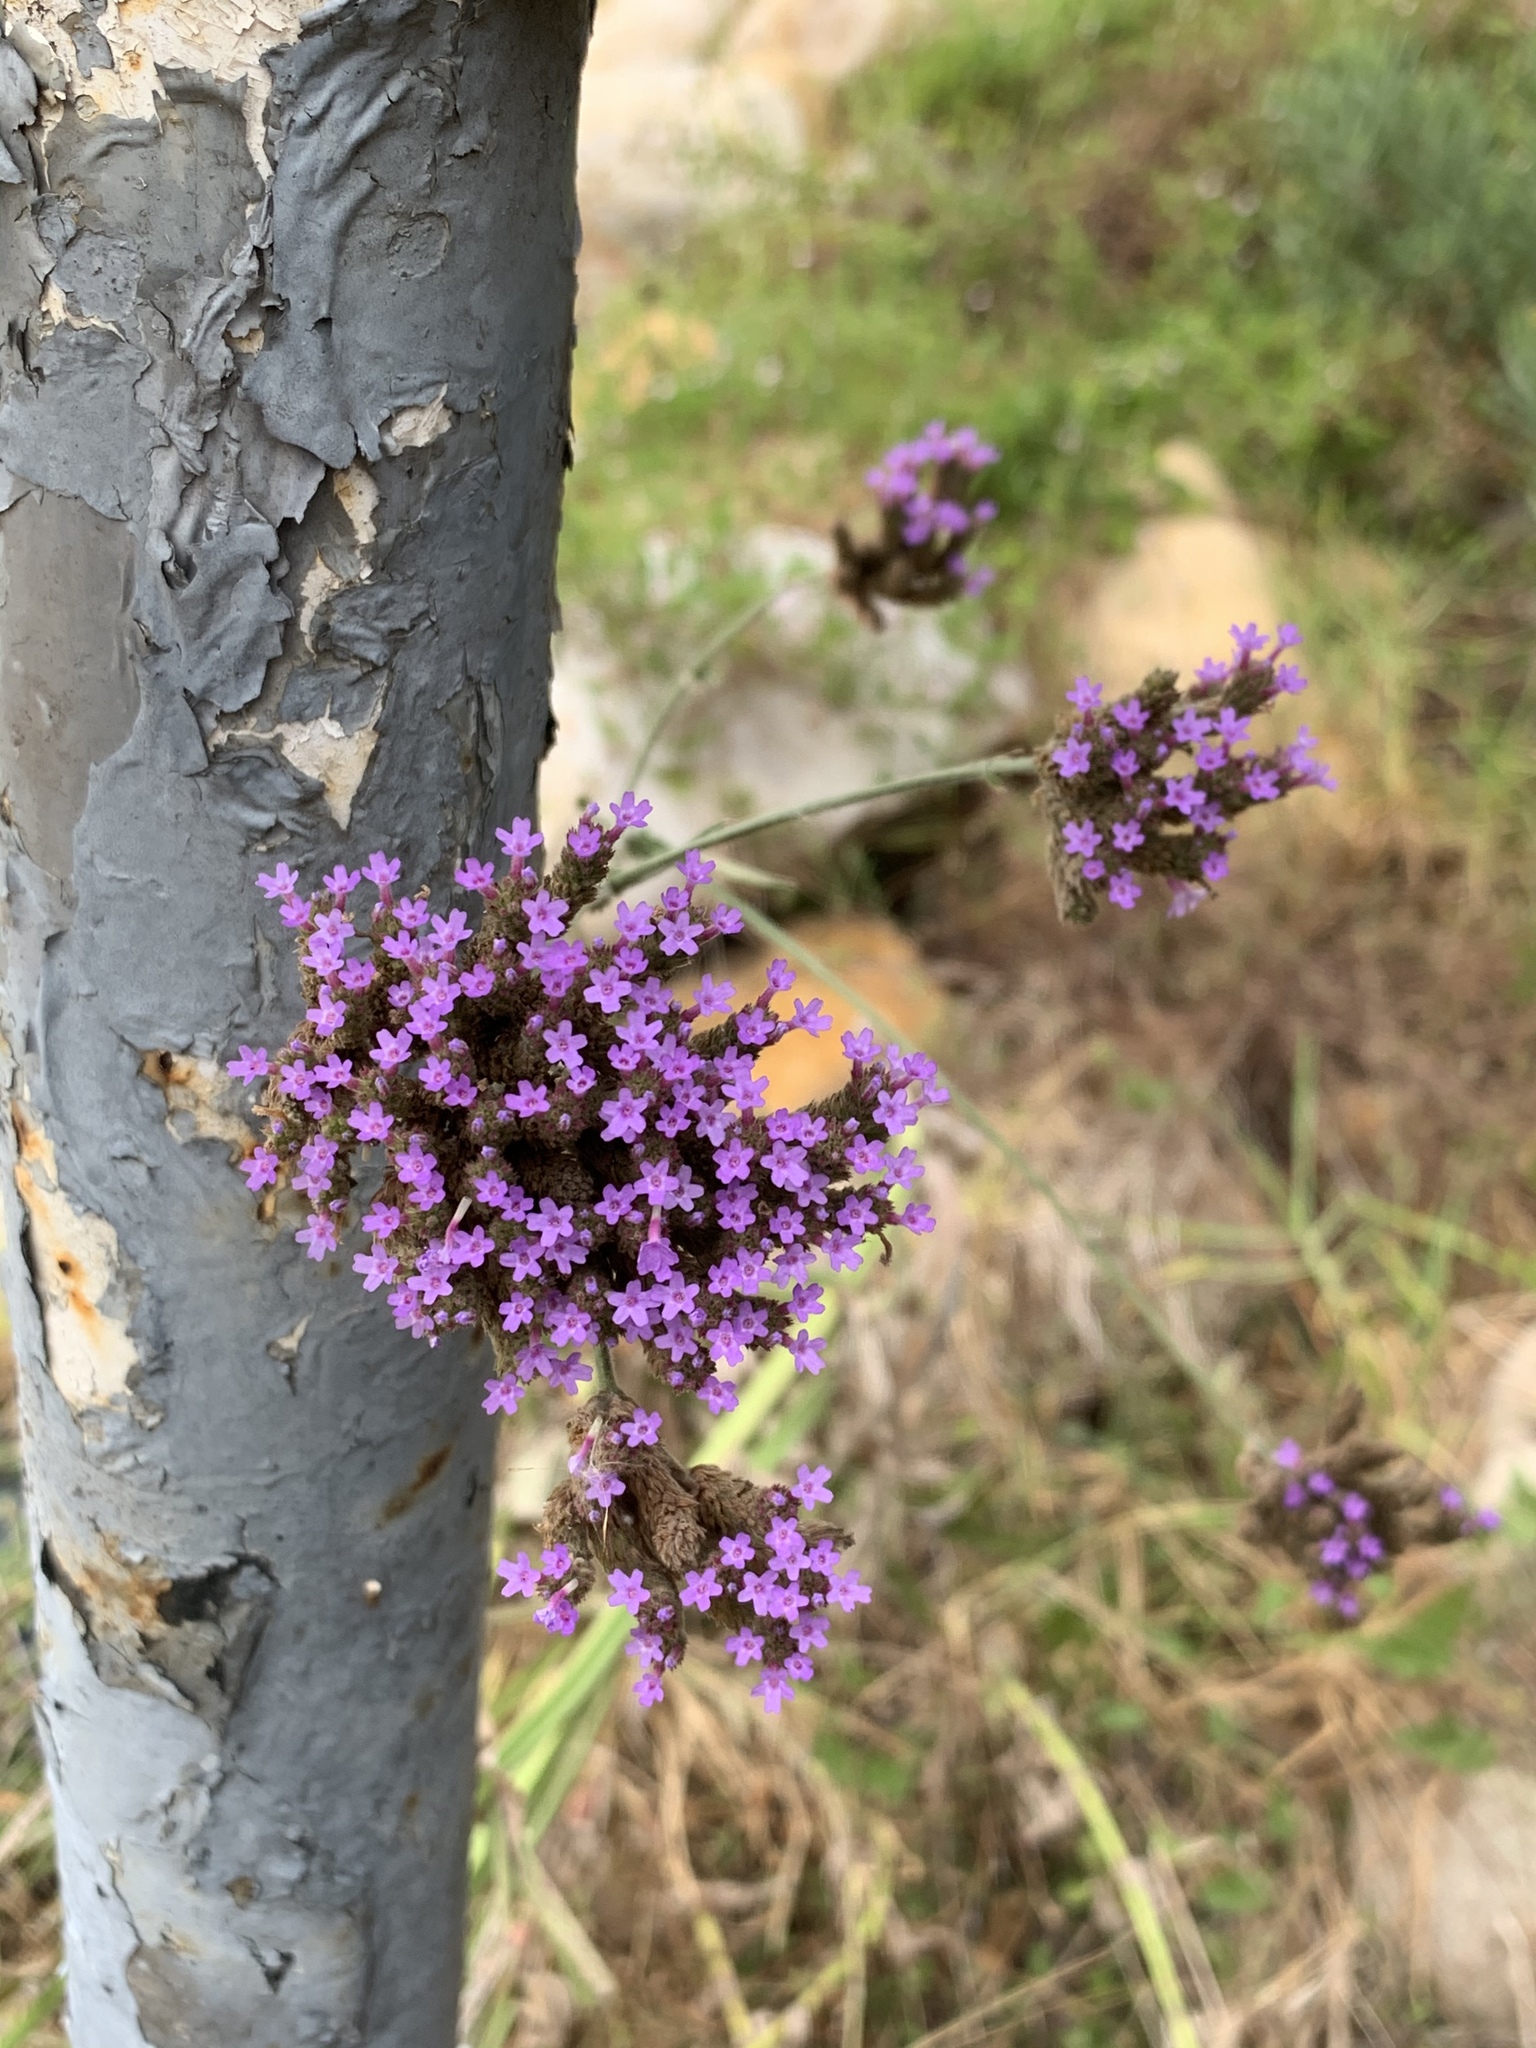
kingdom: Plantae
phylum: Tracheophyta
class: Magnoliopsida
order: Lamiales
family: Verbenaceae
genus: Verbena
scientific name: Verbena bonariensis
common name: Purpletop vervain
